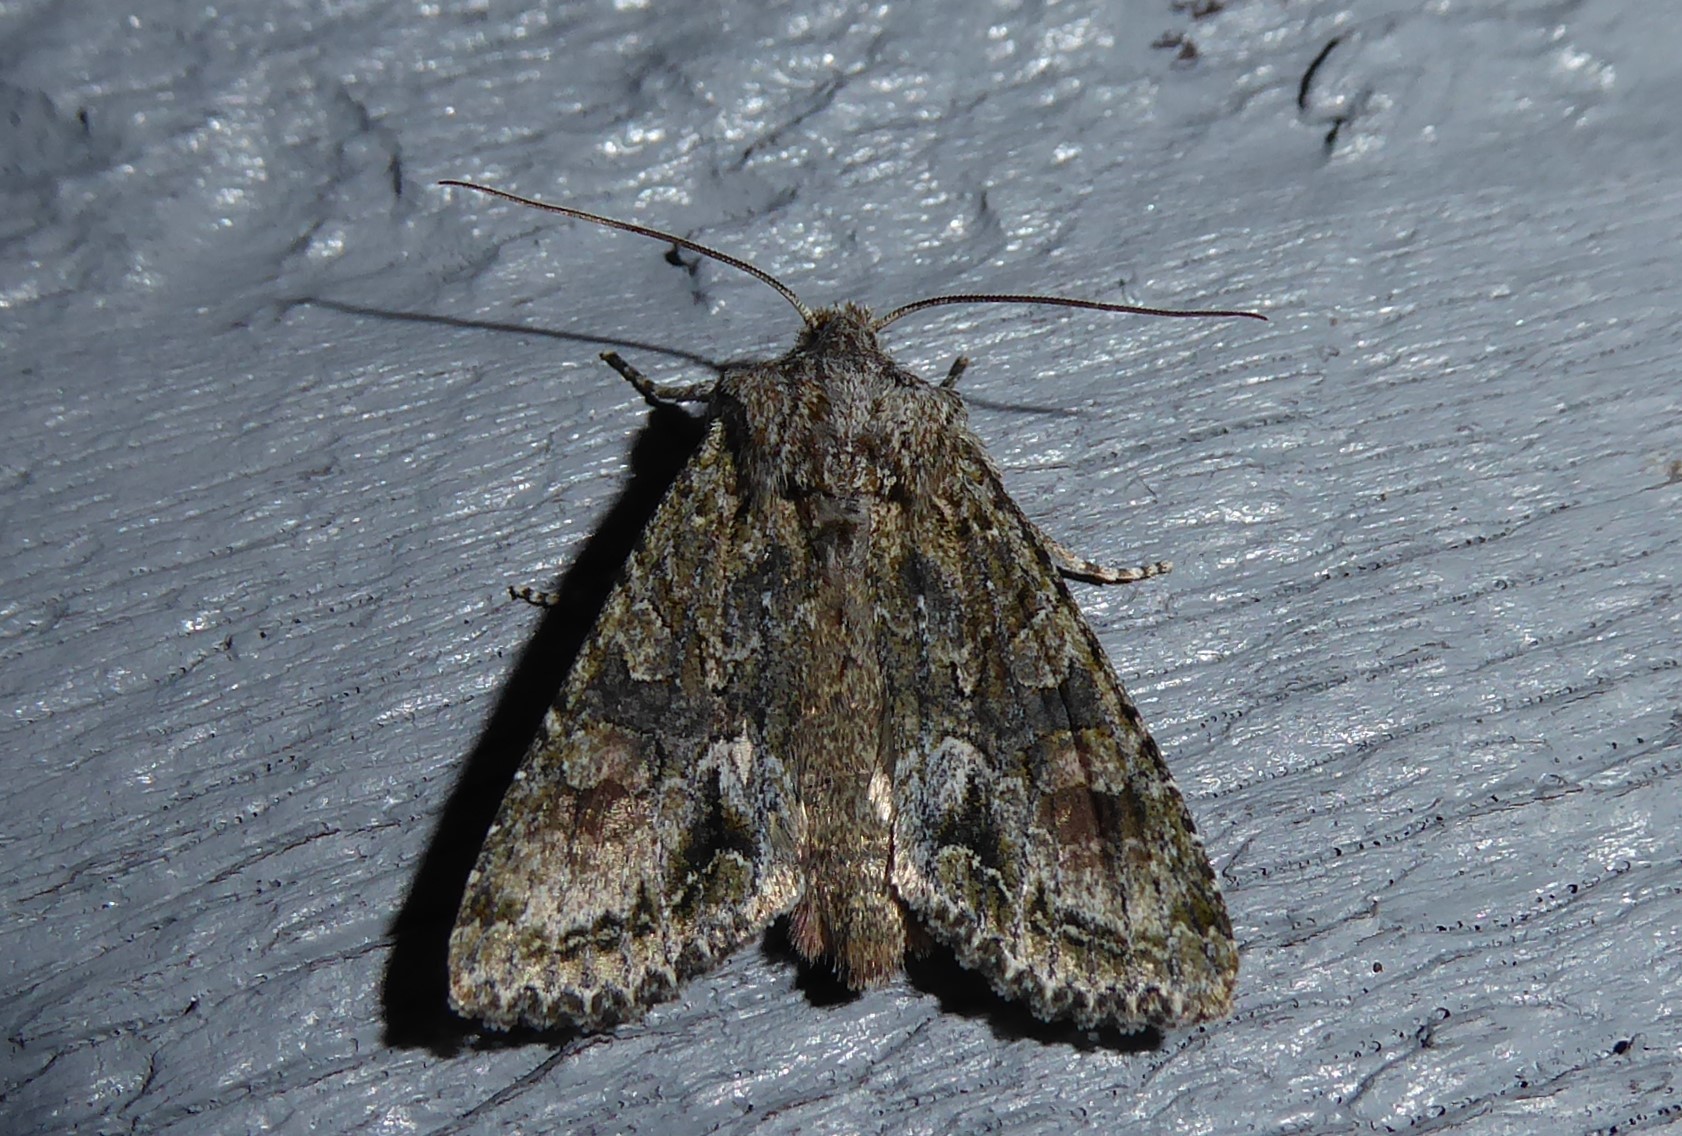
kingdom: Animalia
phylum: Arthropoda
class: Insecta
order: Lepidoptera
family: Noctuidae
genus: Ichneutica
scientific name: Ichneutica mutans
